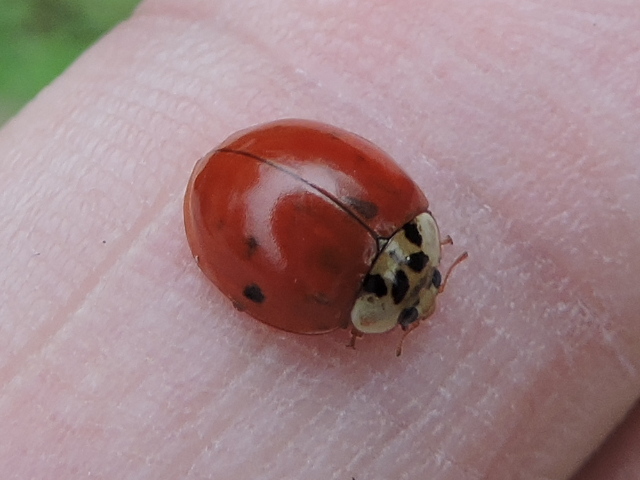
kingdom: Animalia
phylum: Arthropoda
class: Insecta
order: Coleoptera
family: Coccinellidae
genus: Harmonia
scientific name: Harmonia axyridis
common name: Harlequin ladybird
